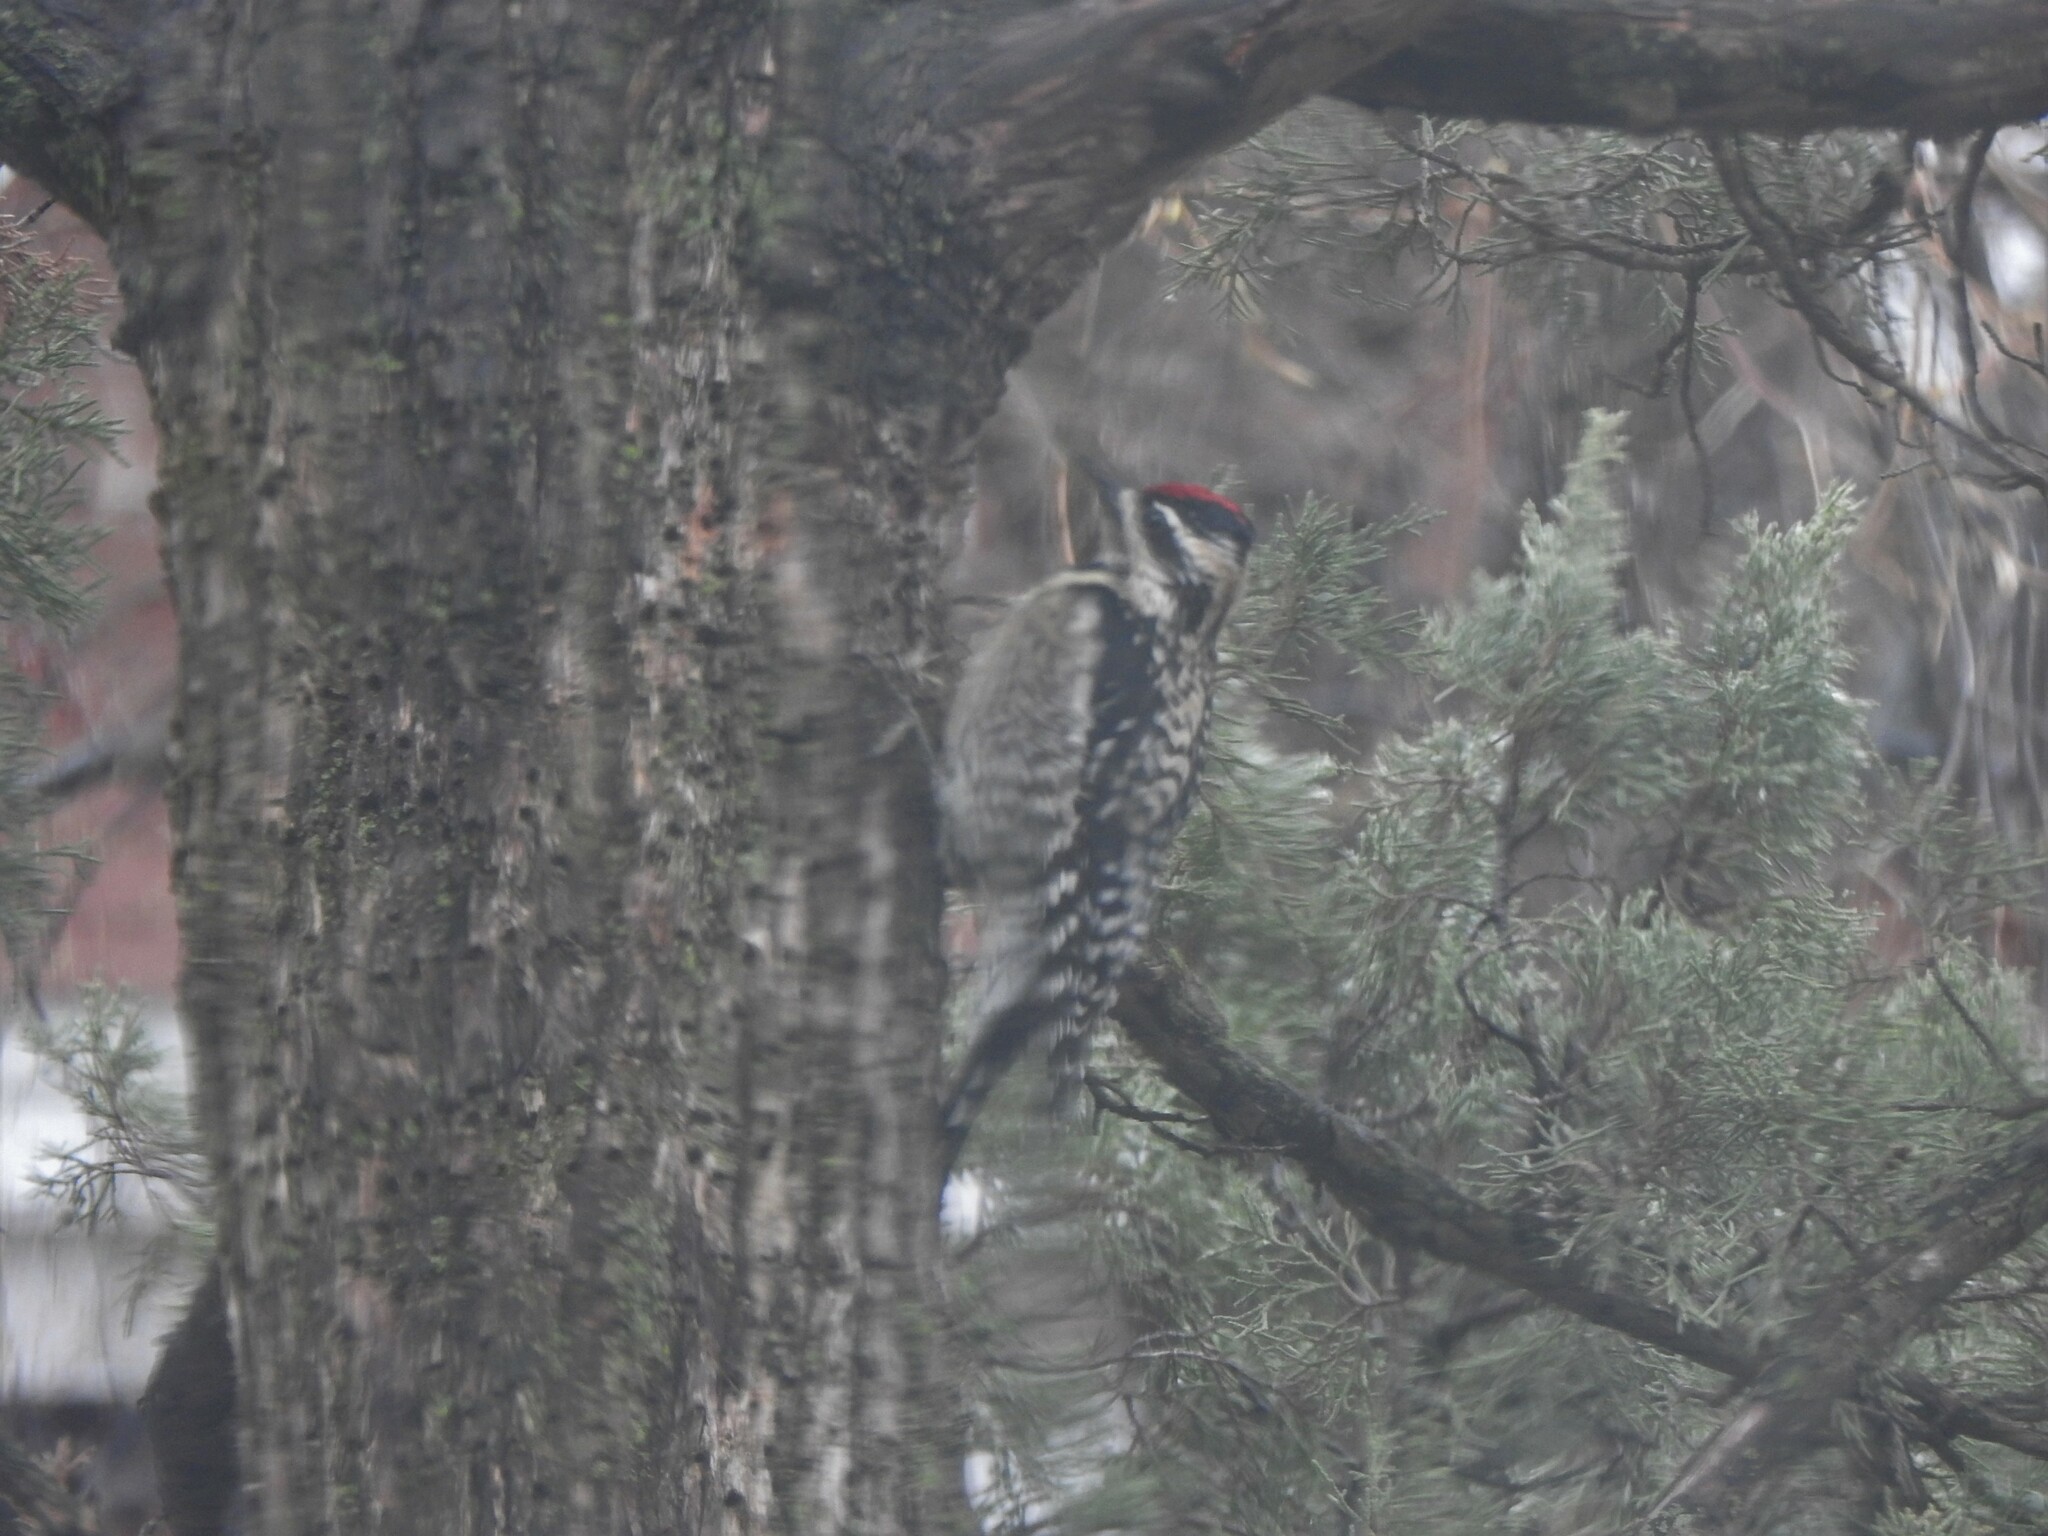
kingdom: Animalia
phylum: Chordata
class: Aves
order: Piciformes
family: Picidae
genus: Sphyrapicus
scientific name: Sphyrapicus varius
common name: Yellow-bellied sapsucker
